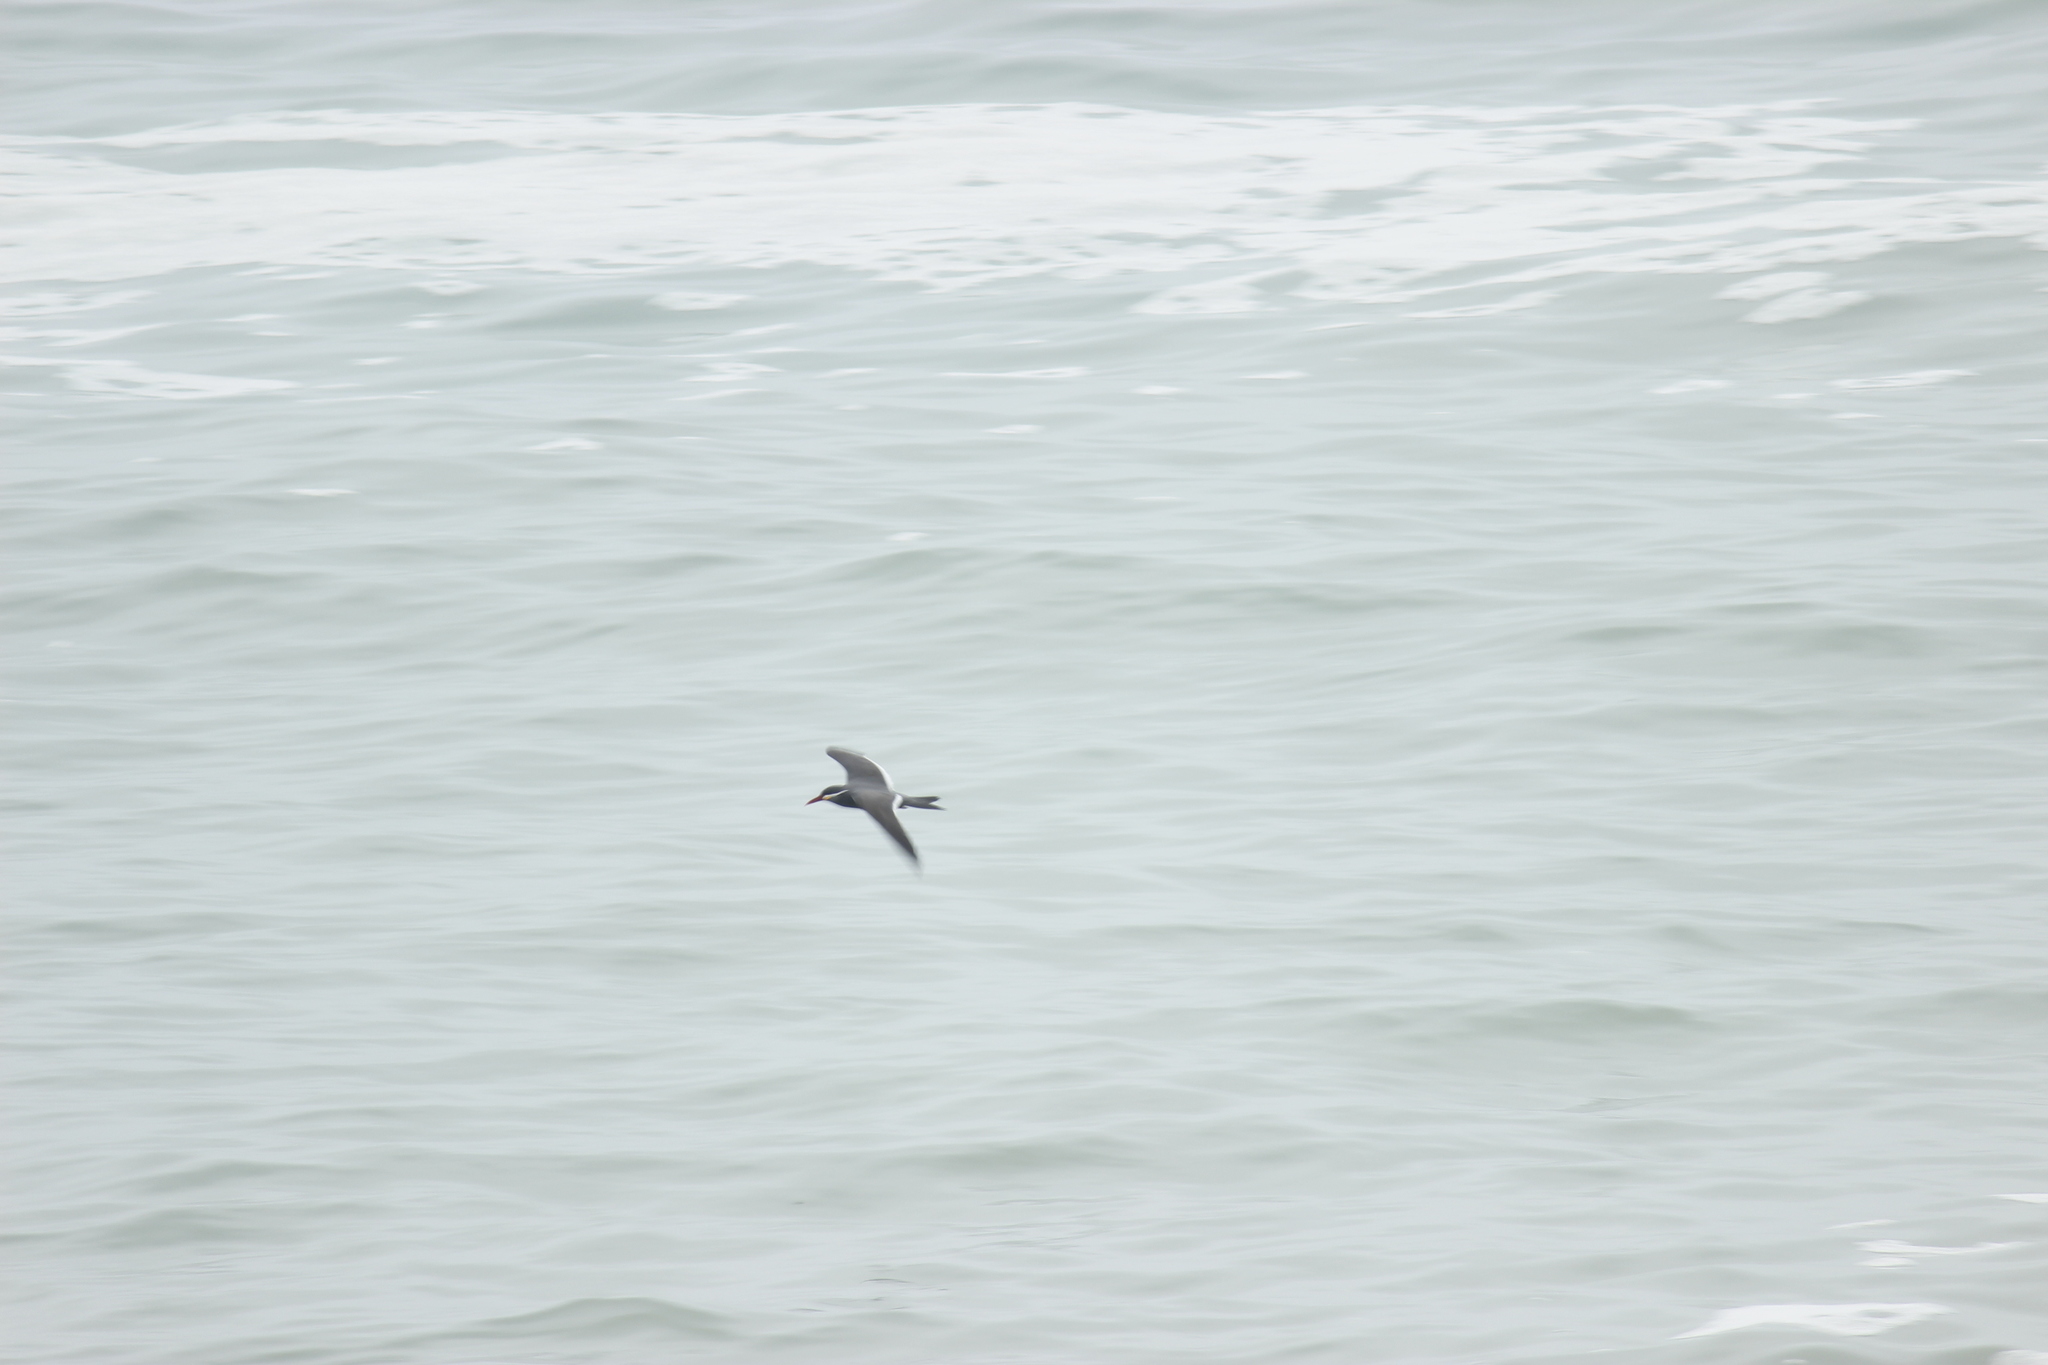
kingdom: Animalia
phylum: Chordata
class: Aves
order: Charadriiformes
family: Laridae
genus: Larosterna
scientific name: Larosterna inca
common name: Inca tern
